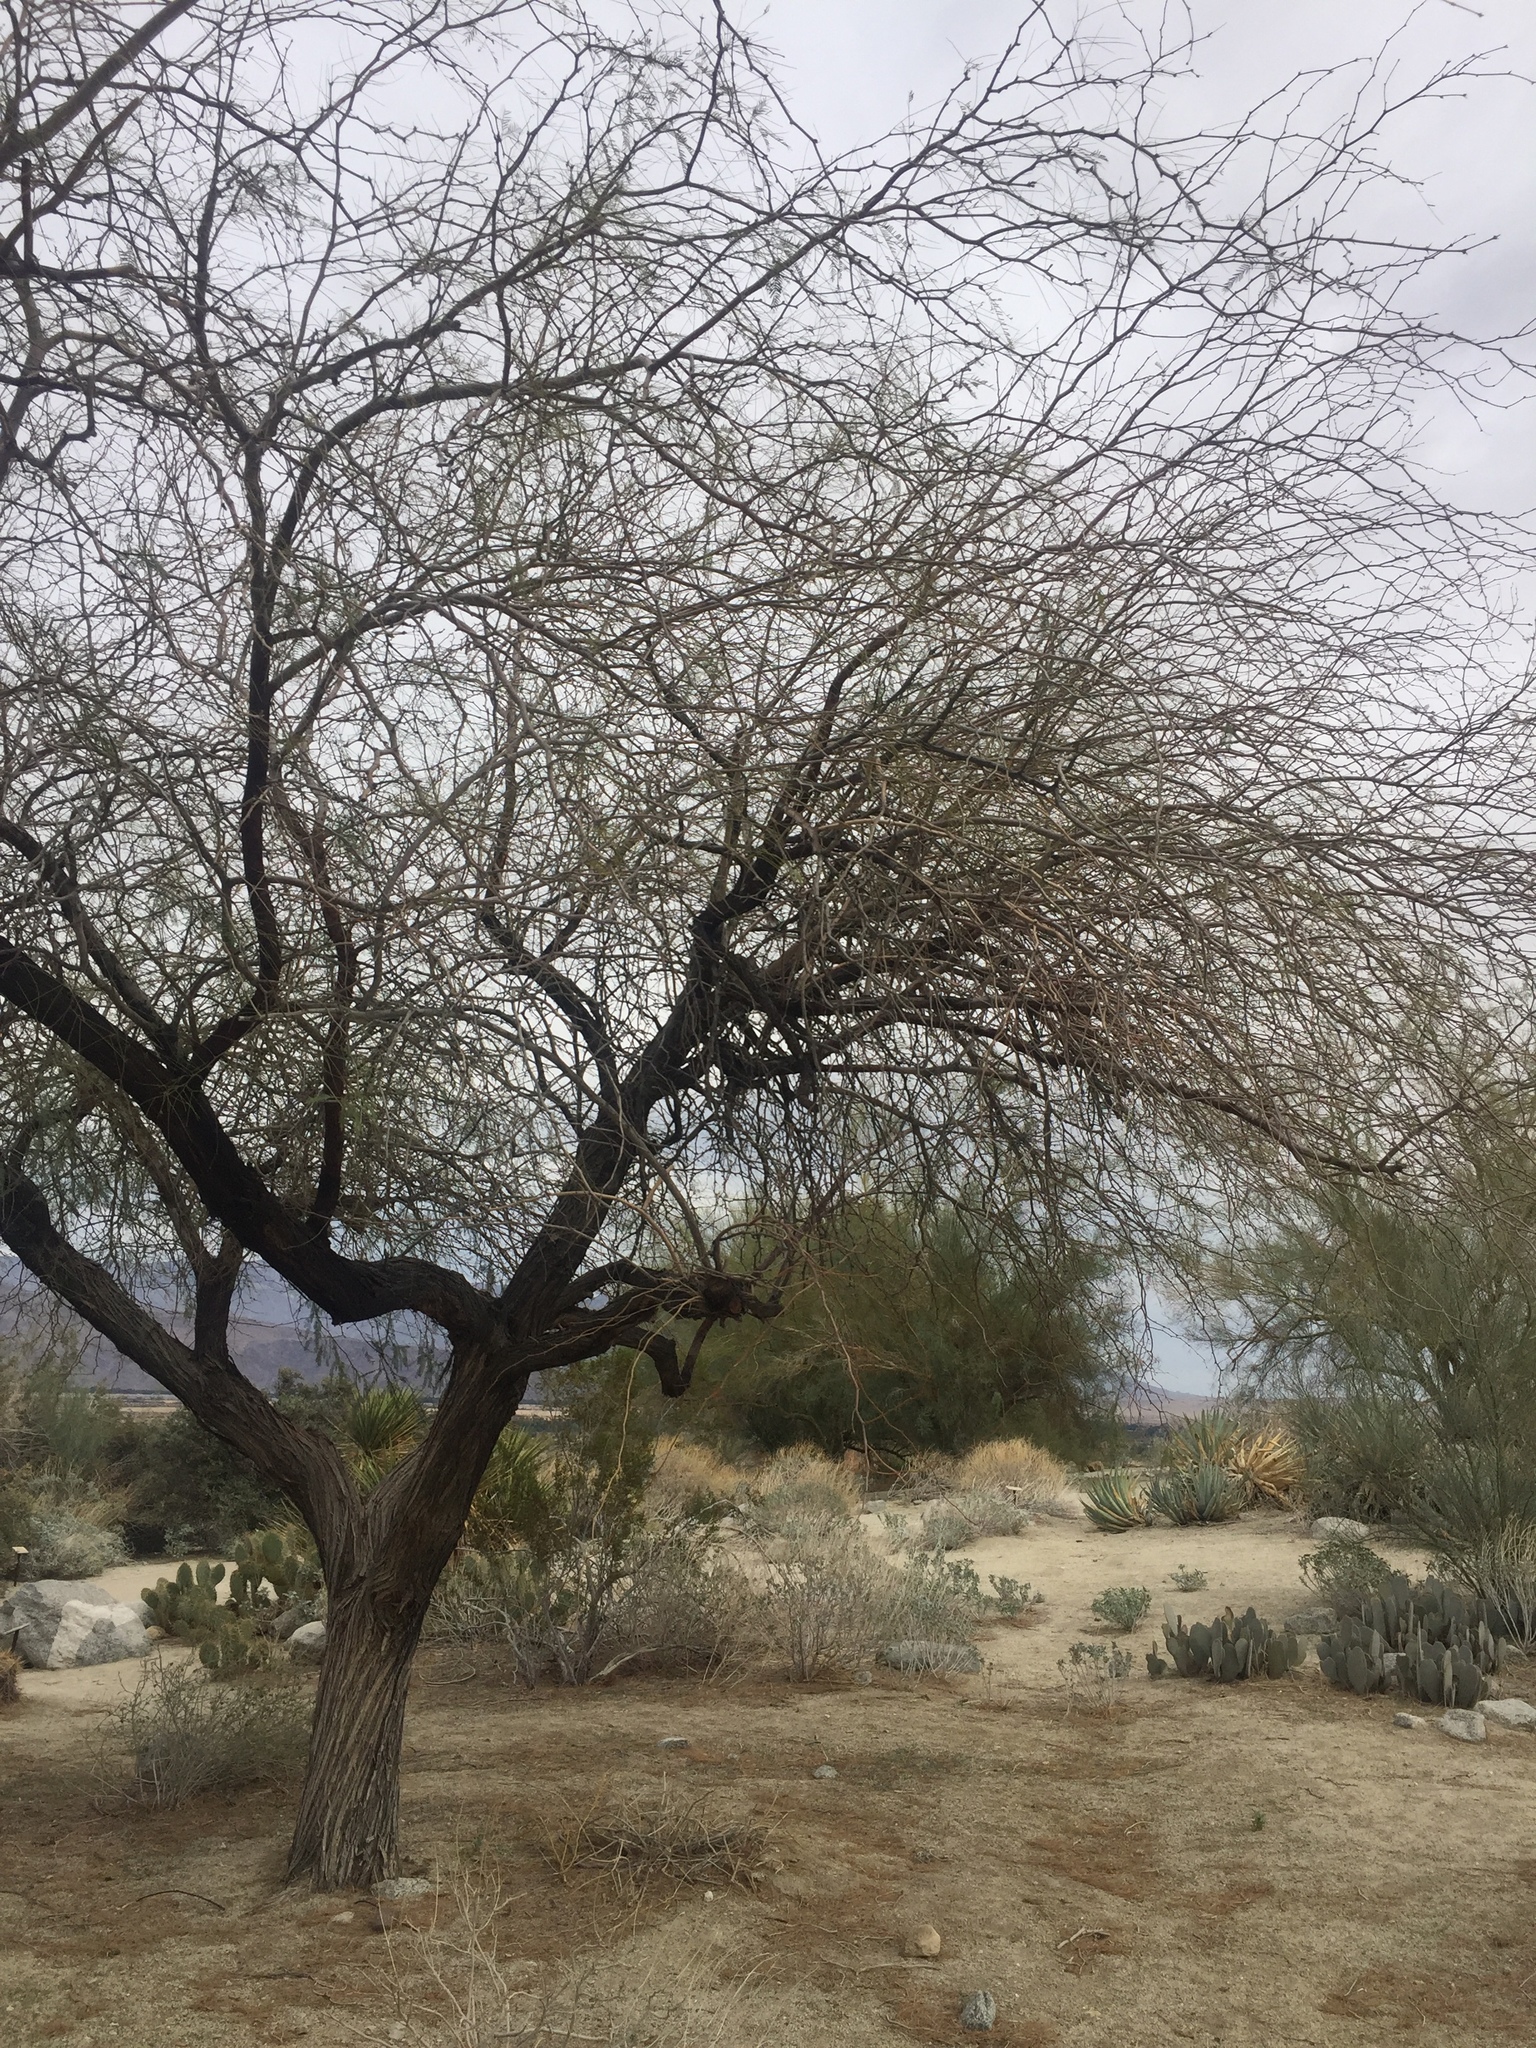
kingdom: Plantae
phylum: Tracheophyta
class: Magnoliopsida
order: Fabales
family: Fabaceae
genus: Prosopis
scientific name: Prosopis pubescens
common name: Screw-bean
